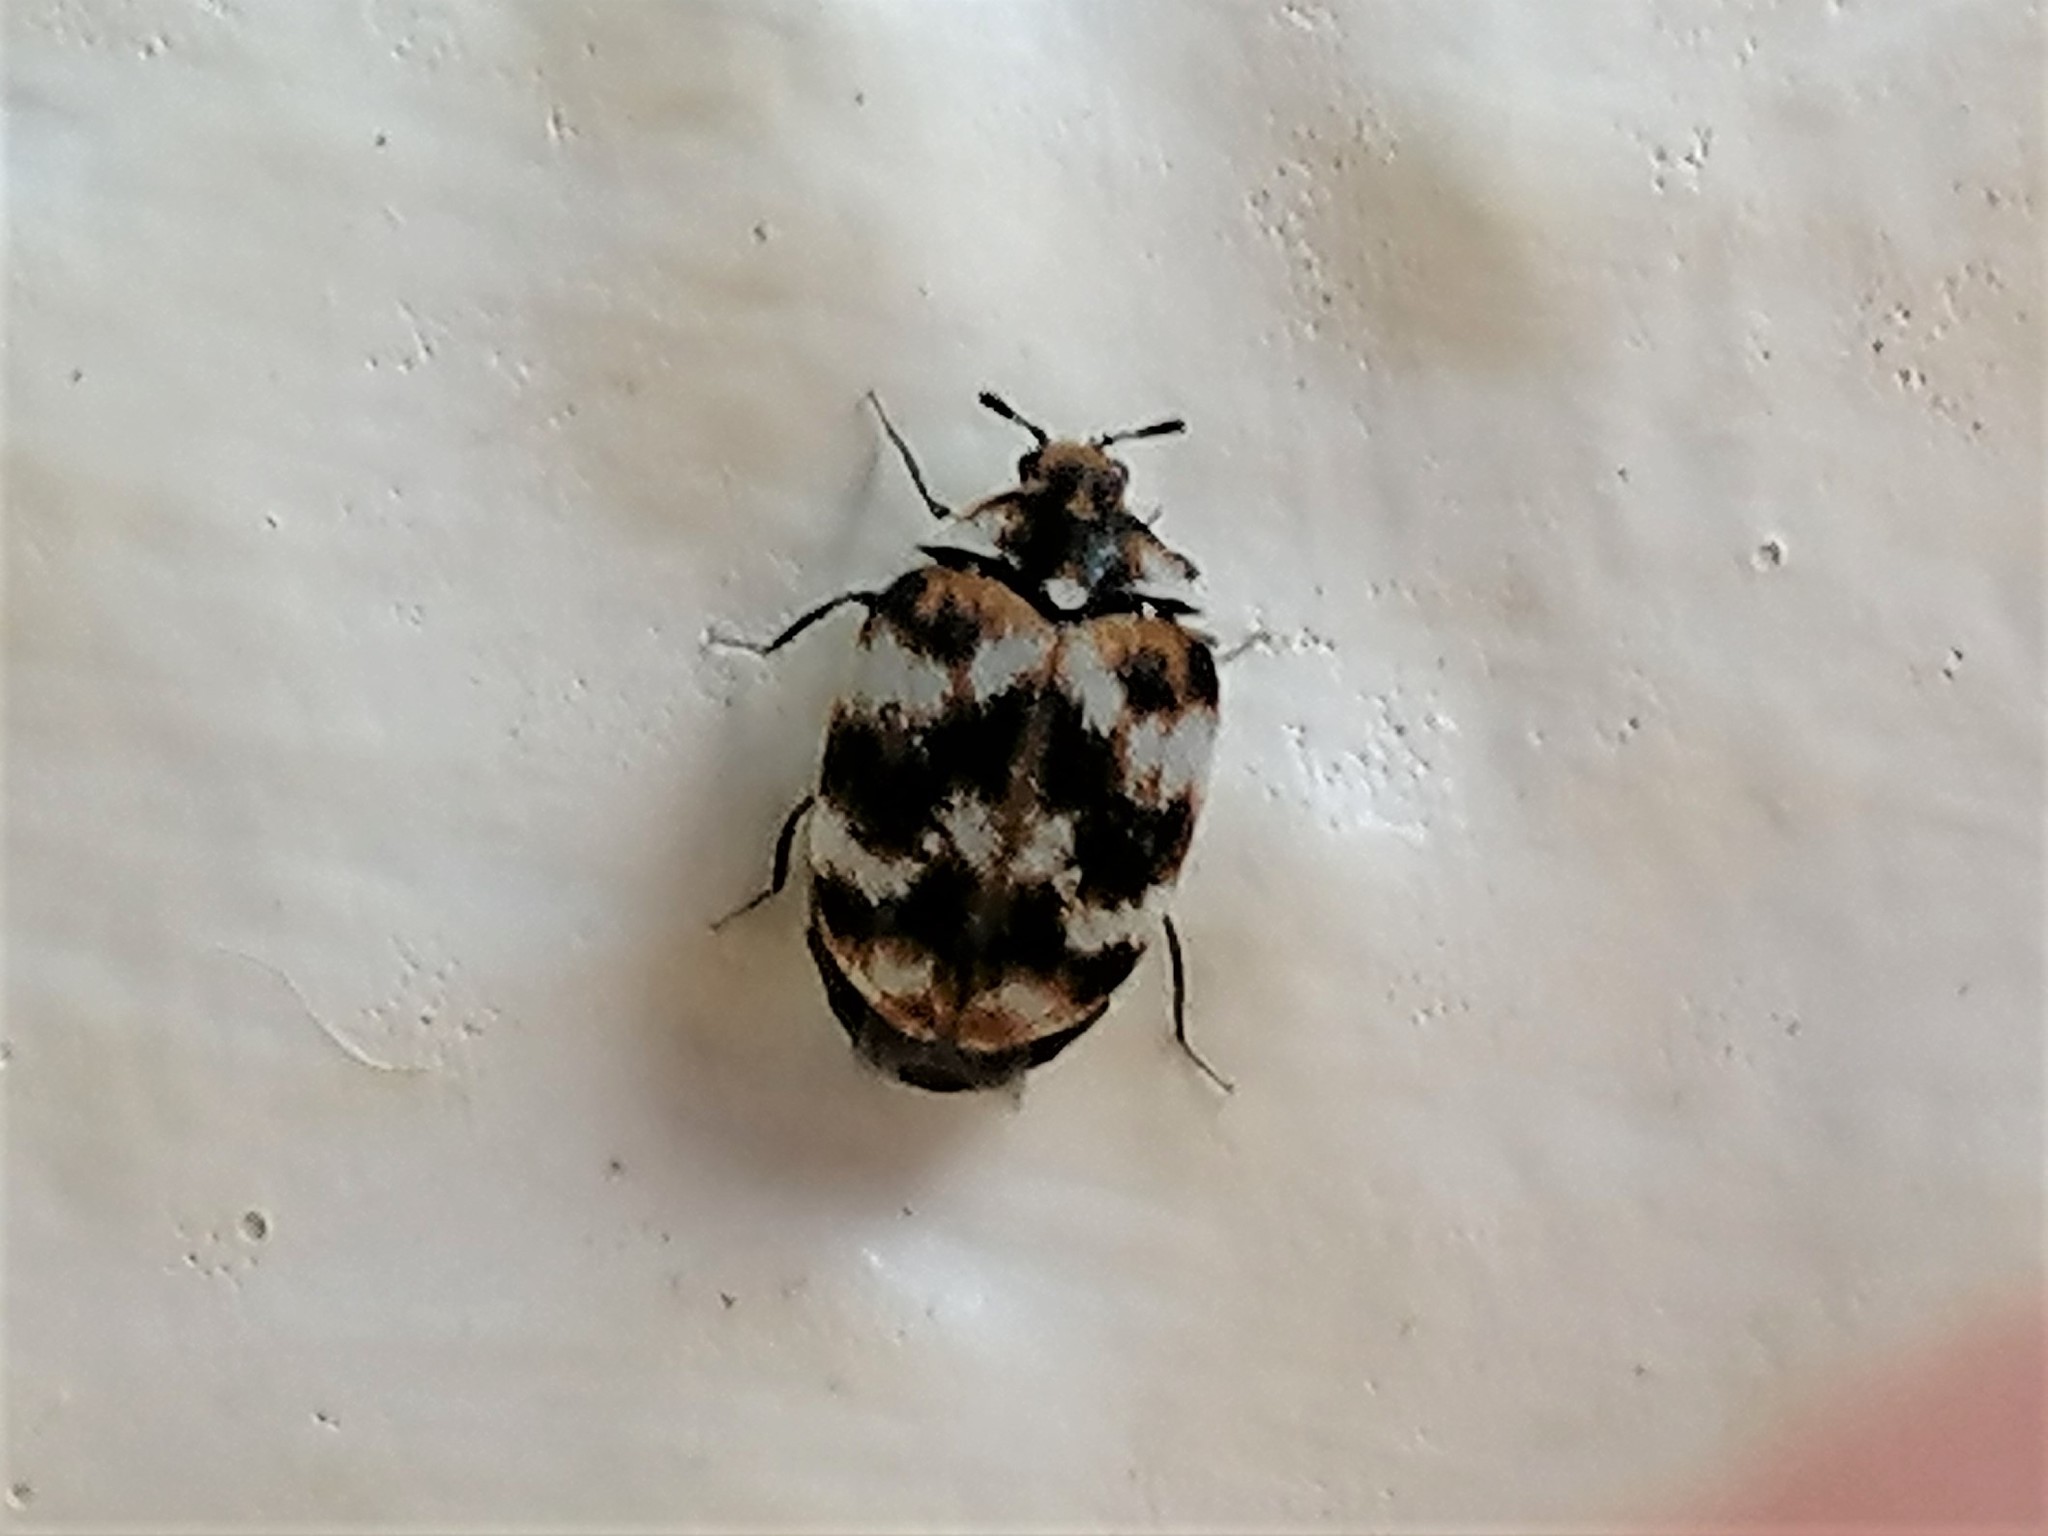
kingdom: Animalia
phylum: Arthropoda
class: Insecta
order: Coleoptera
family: Dermestidae
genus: Anthrenus
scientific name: Anthrenus verbasci
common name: Varied carpet beetle
